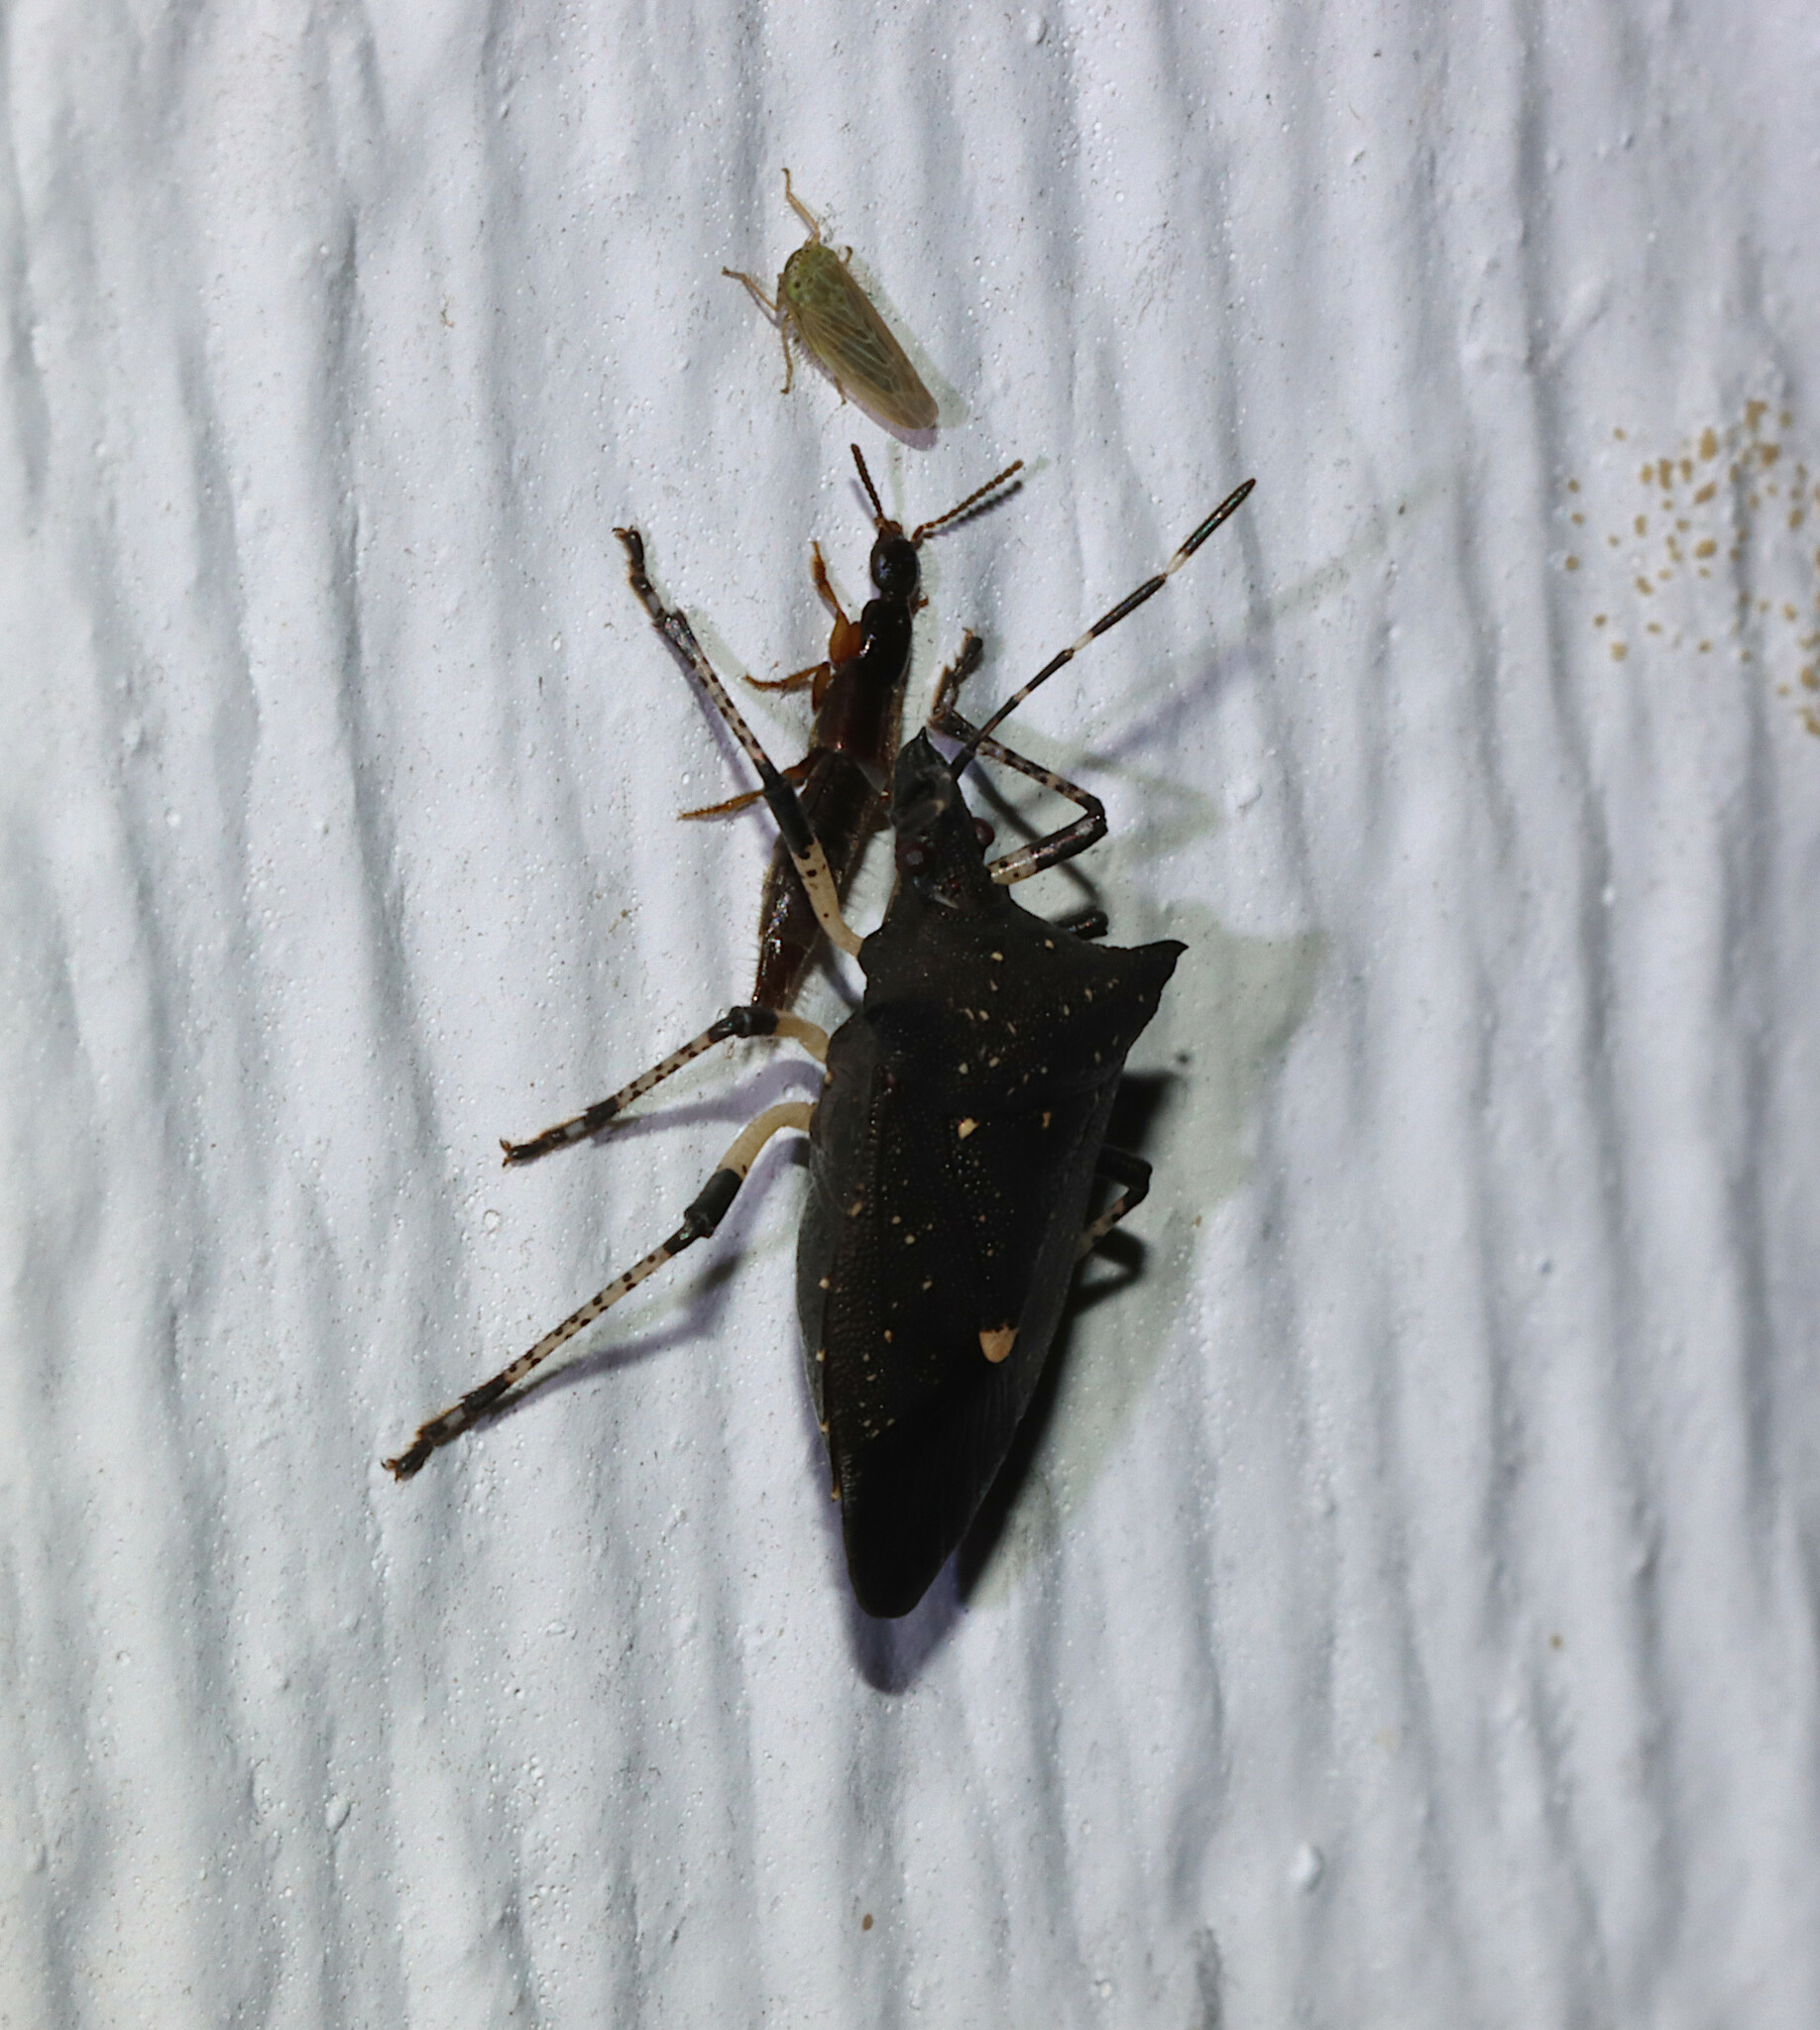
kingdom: Animalia
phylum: Arthropoda
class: Insecta
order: Hemiptera
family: Pentatomidae
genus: Proxys
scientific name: Proxys punctulatus
